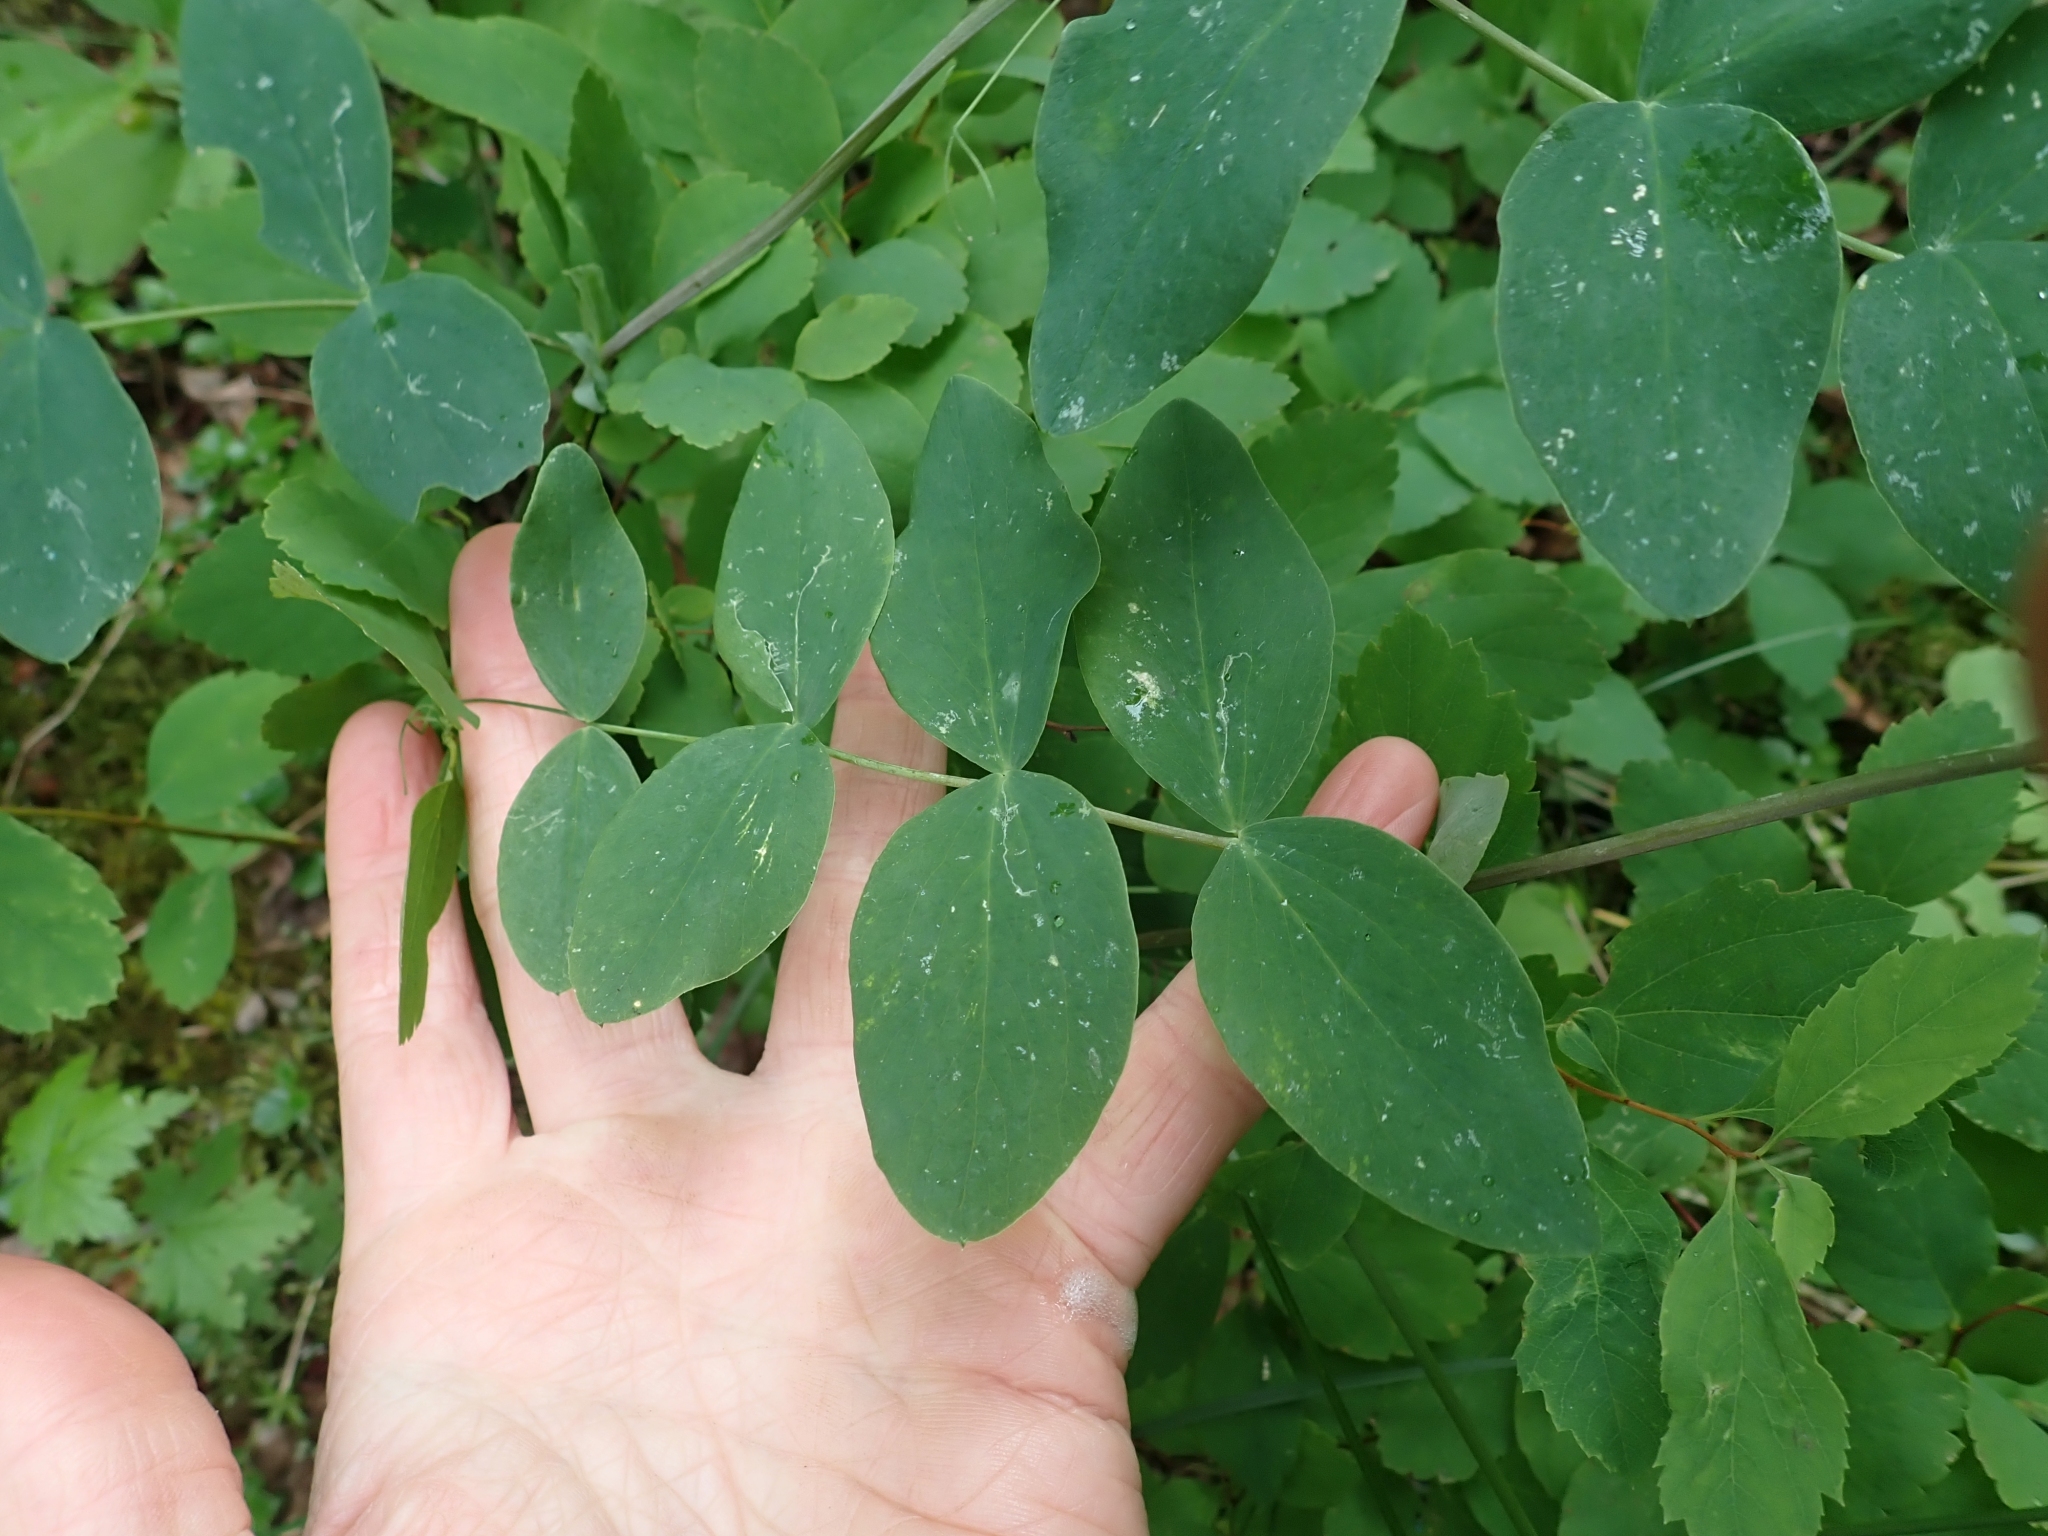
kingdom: Plantae
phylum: Tracheophyta
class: Magnoliopsida
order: Fabales
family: Fabaceae
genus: Lathyrus
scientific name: Lathyrus ochroleucus
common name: Pale vetchling
